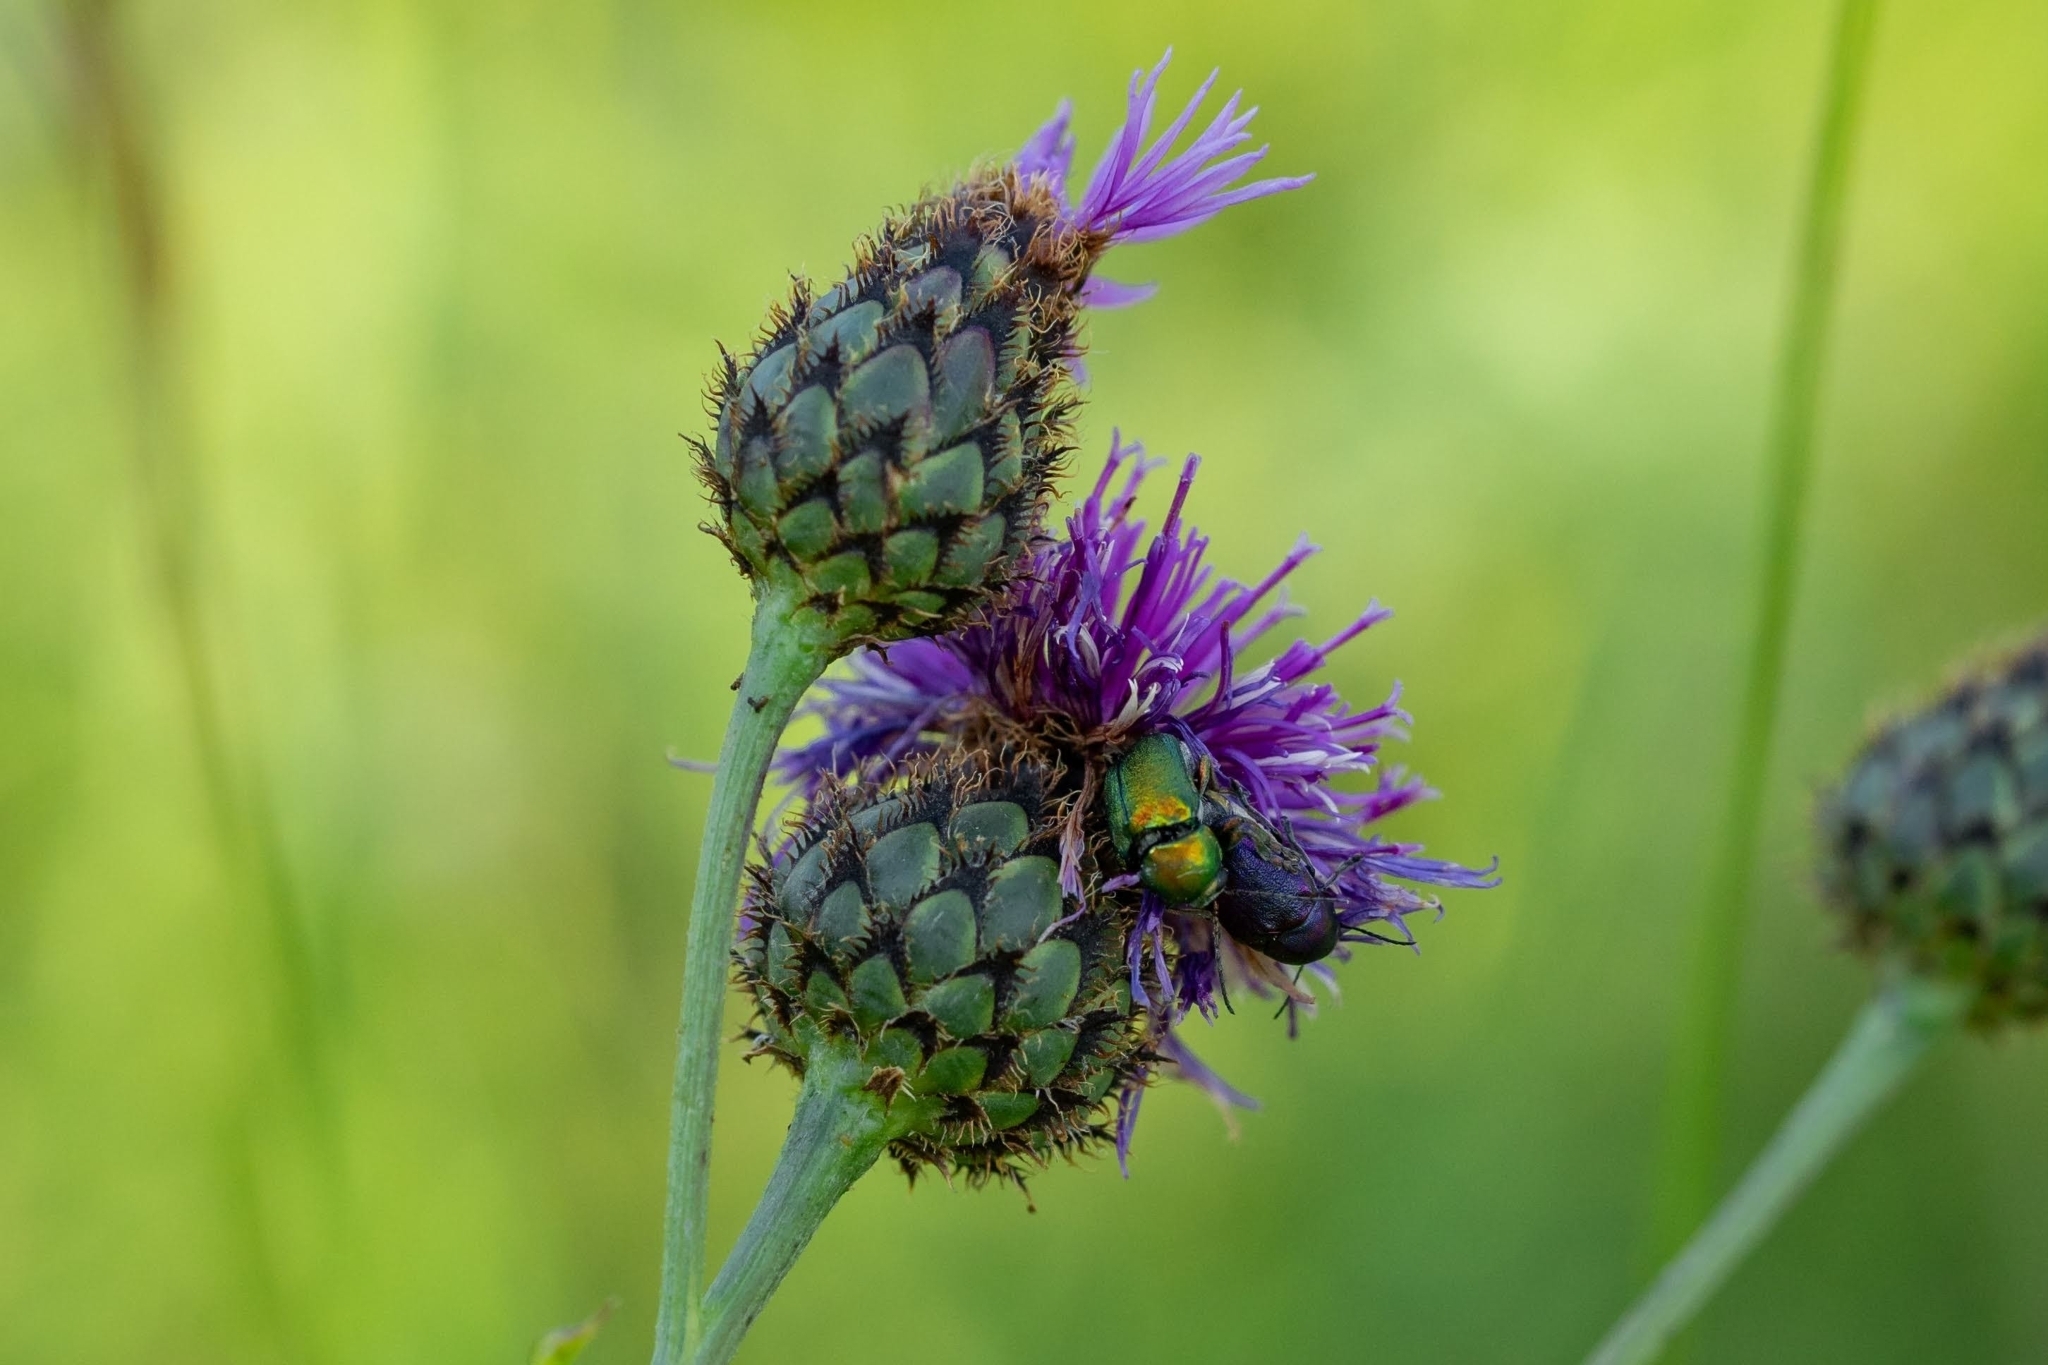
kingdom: Plantae
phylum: Tracheophyta
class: Magnoliopsida
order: Asterales
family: Asteraceae
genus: Centaurea
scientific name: Centaurea scabiosa
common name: Greater knapweed
